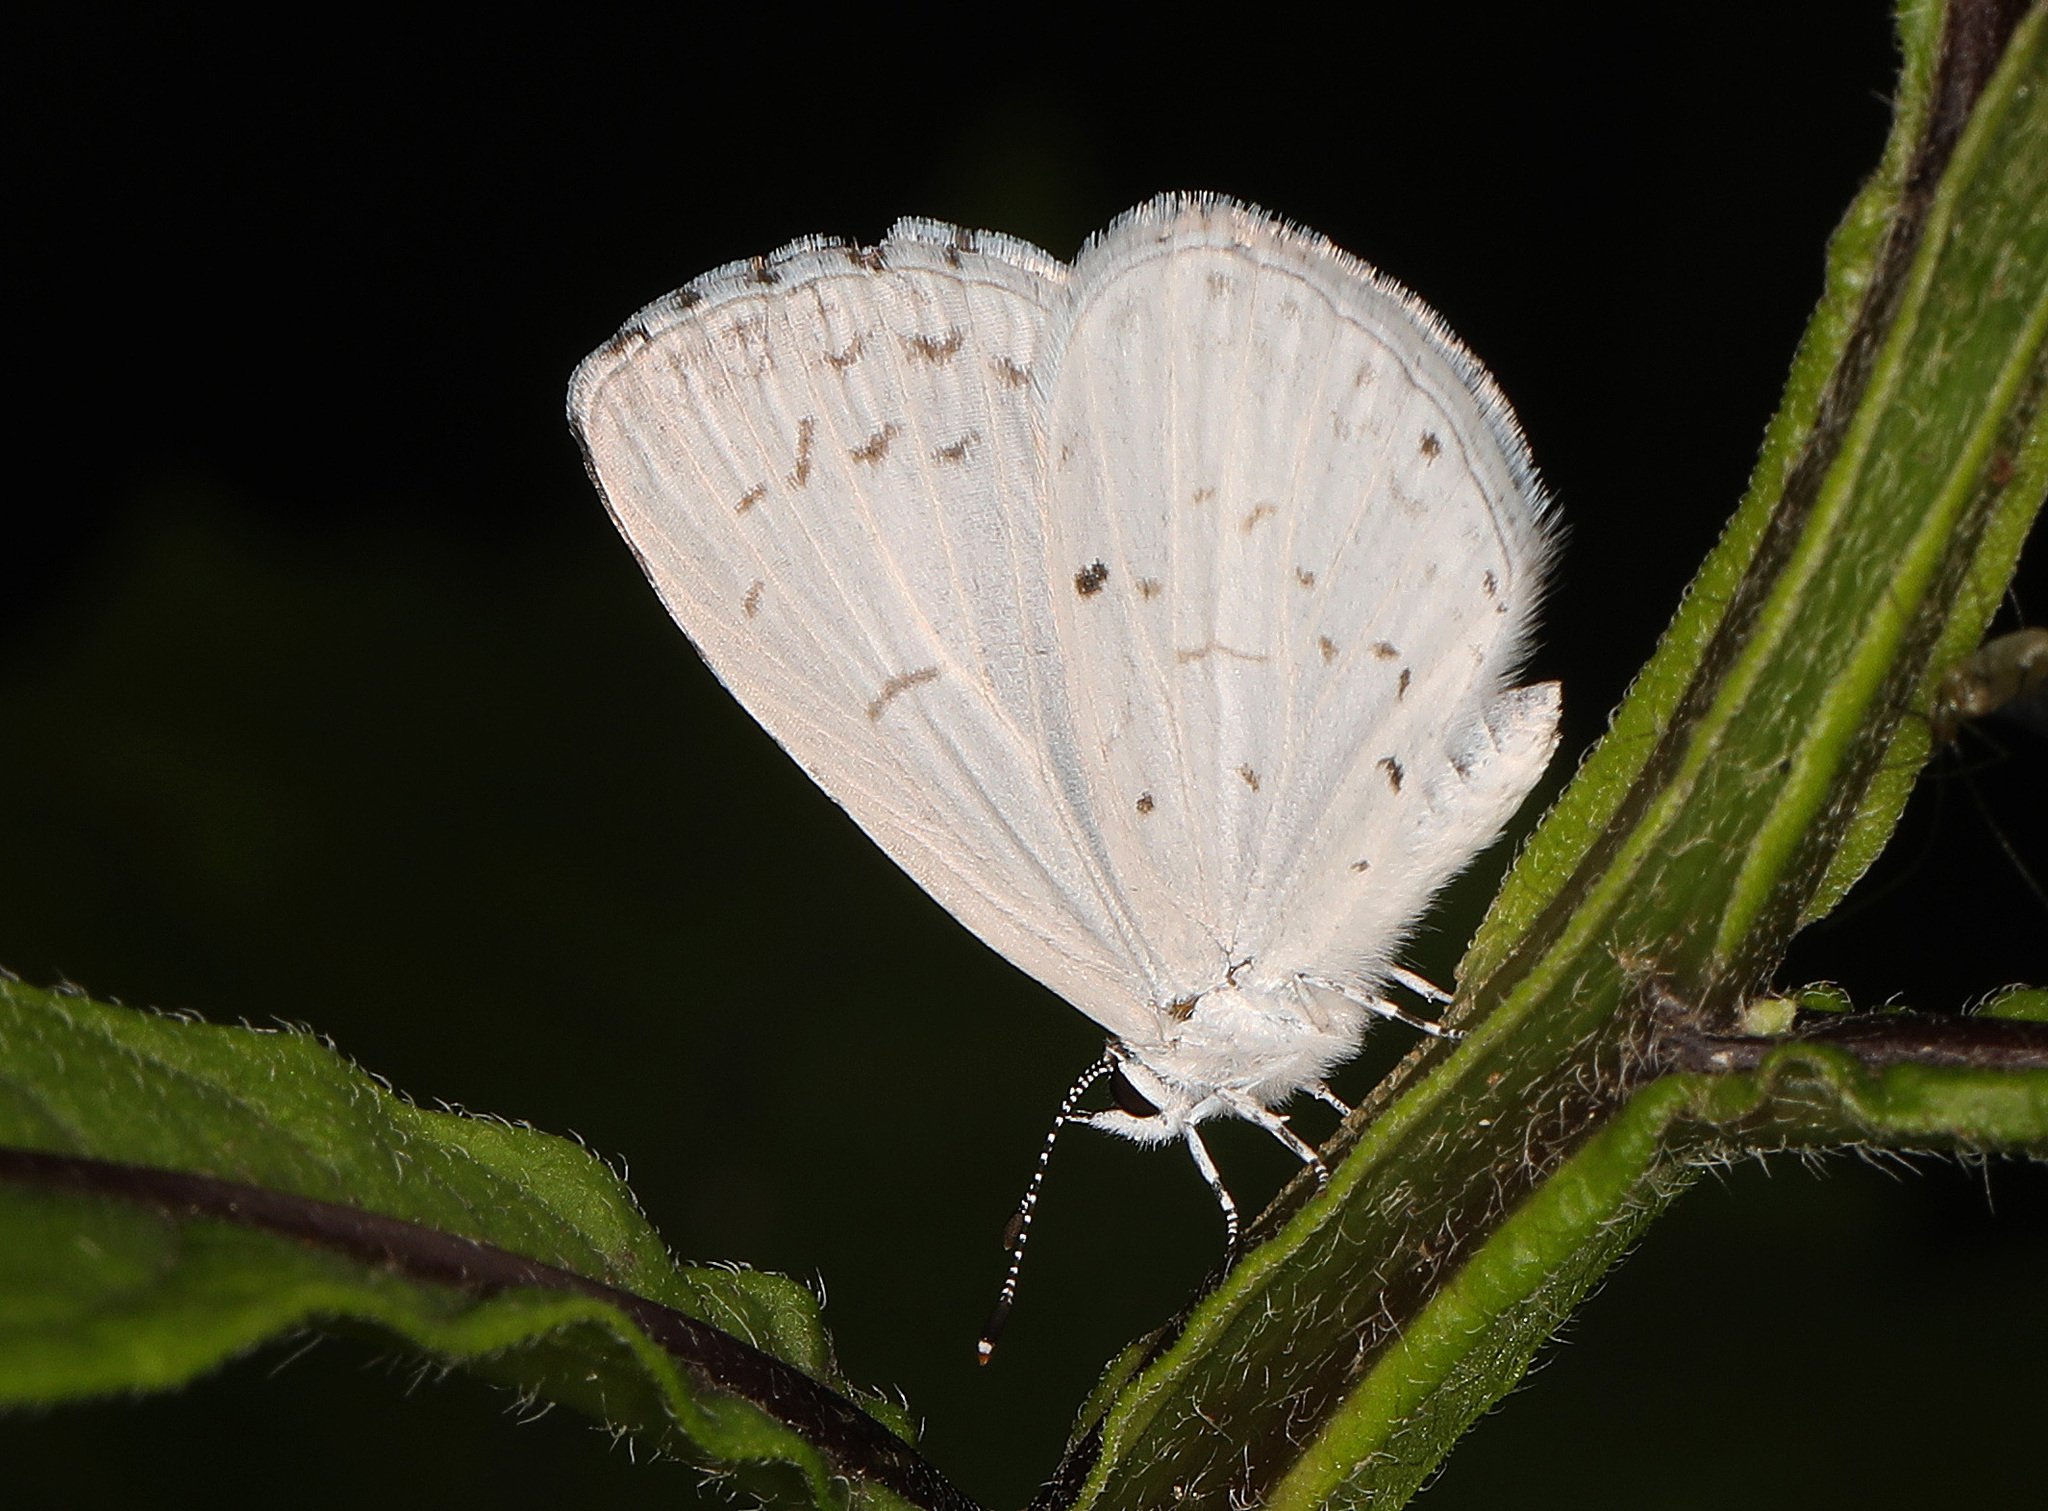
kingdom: Animalia
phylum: Arthropoda
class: Insecta
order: Lepidoptera
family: Lycaenidae
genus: Cyaniris
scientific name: Cyaniris neglecta
